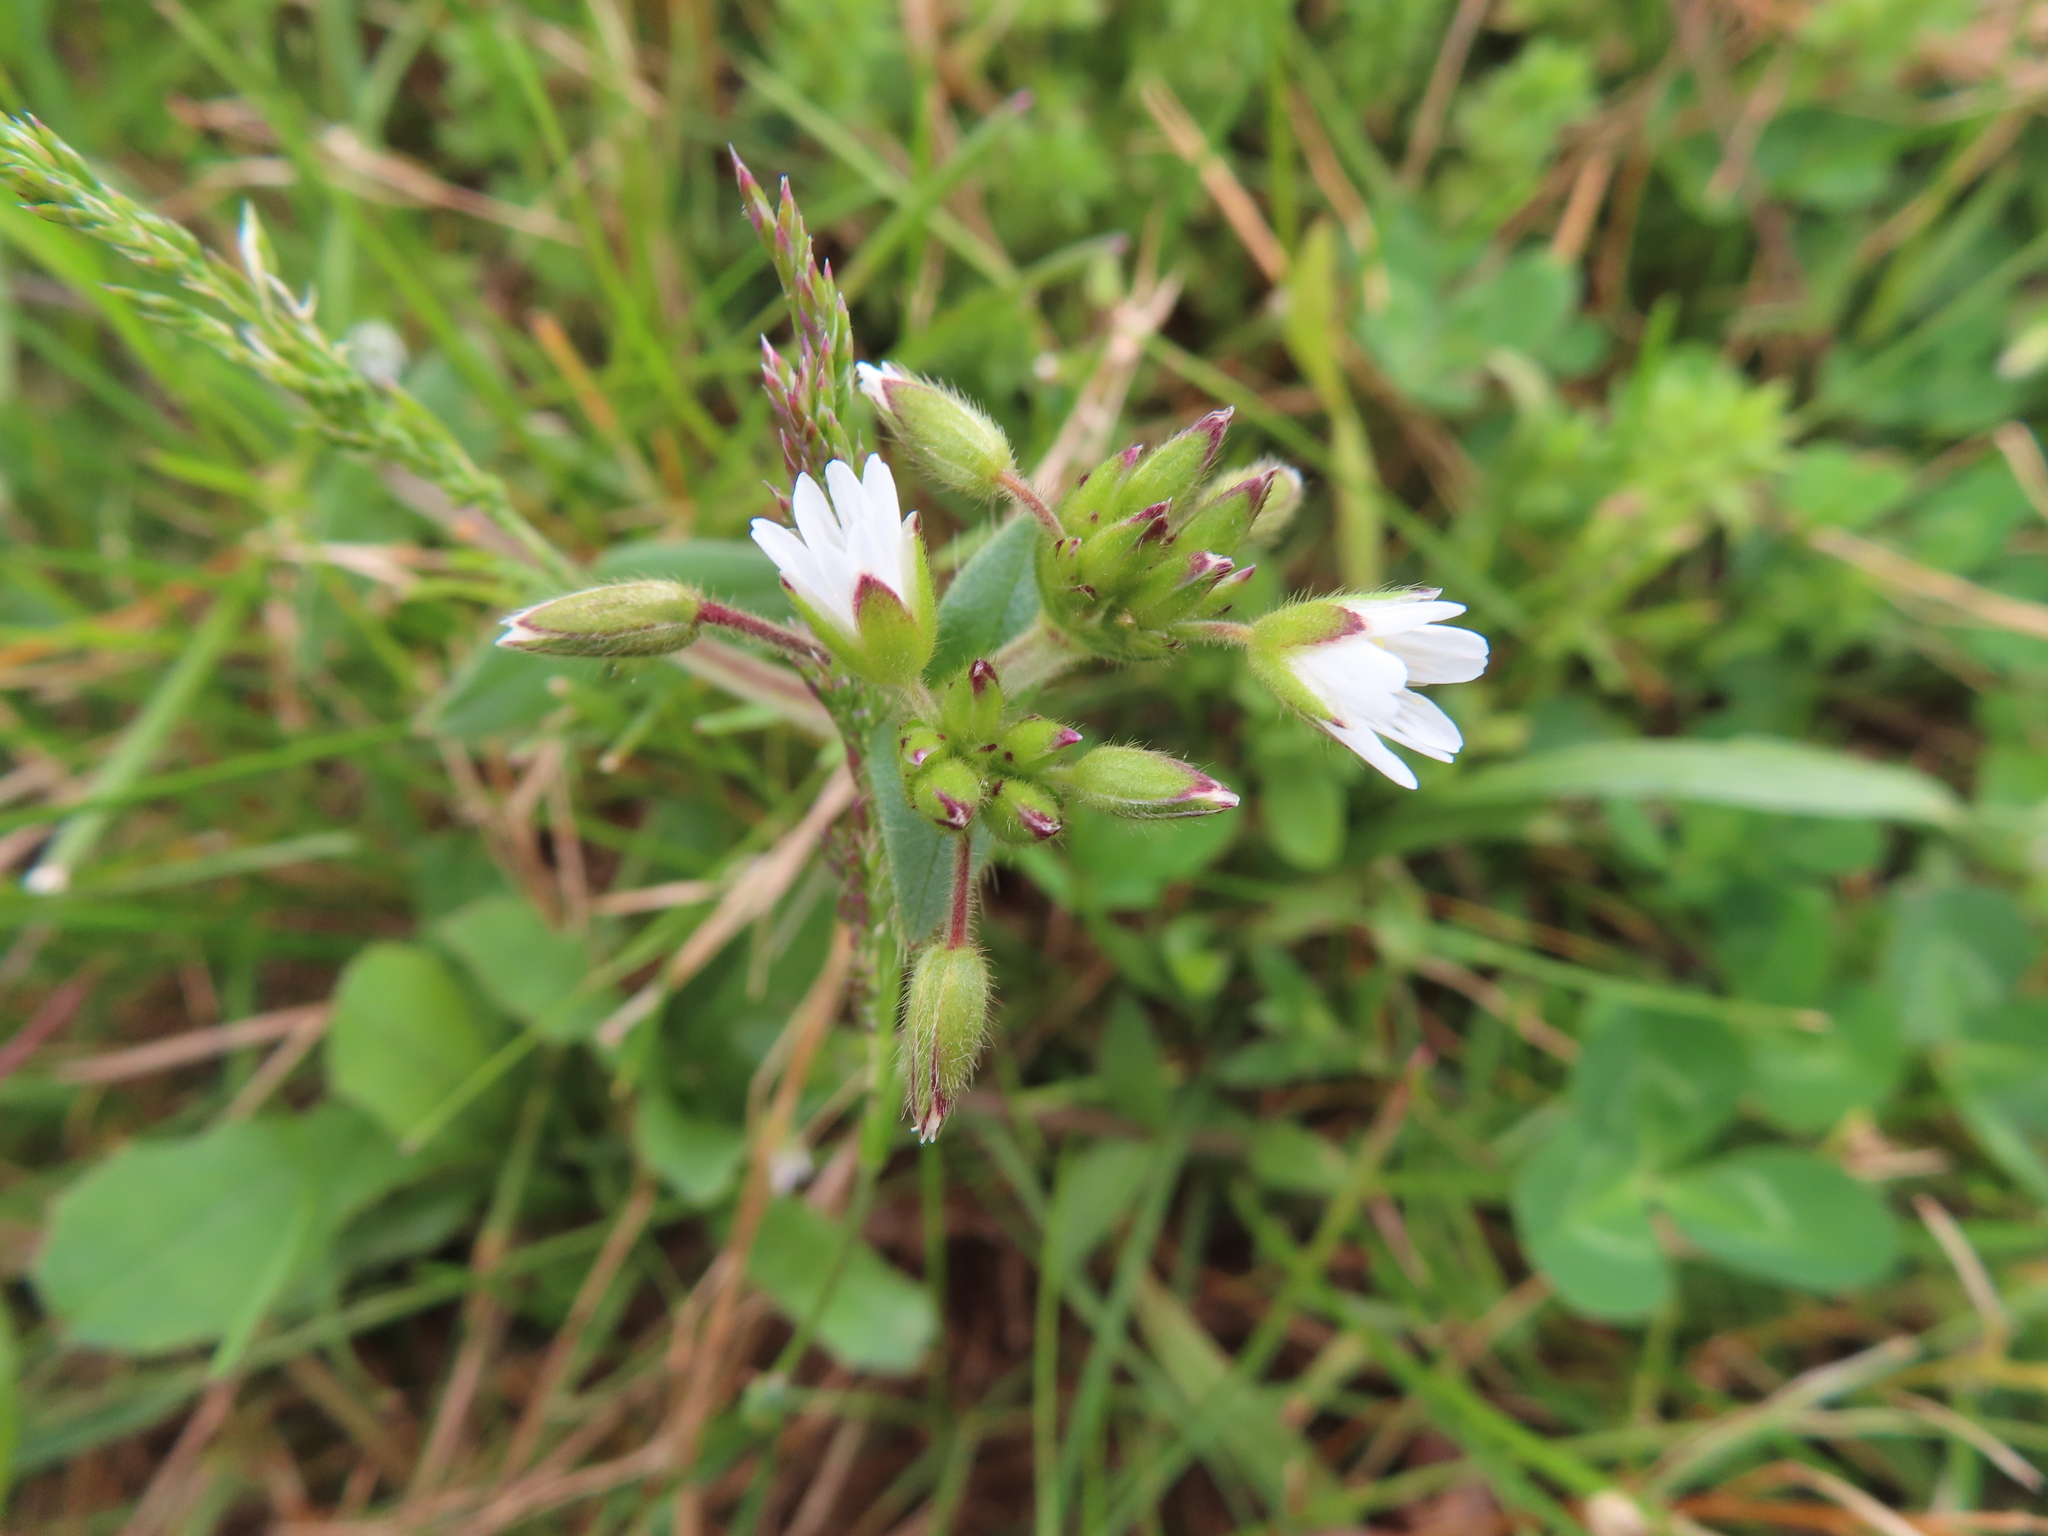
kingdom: Plantae
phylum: Tracheophyta
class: Magnoliopsida
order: Caryophyllales
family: Caryophyllaceae
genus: Cerastium
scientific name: Cerastium fontanum
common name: Common mouse-ear
